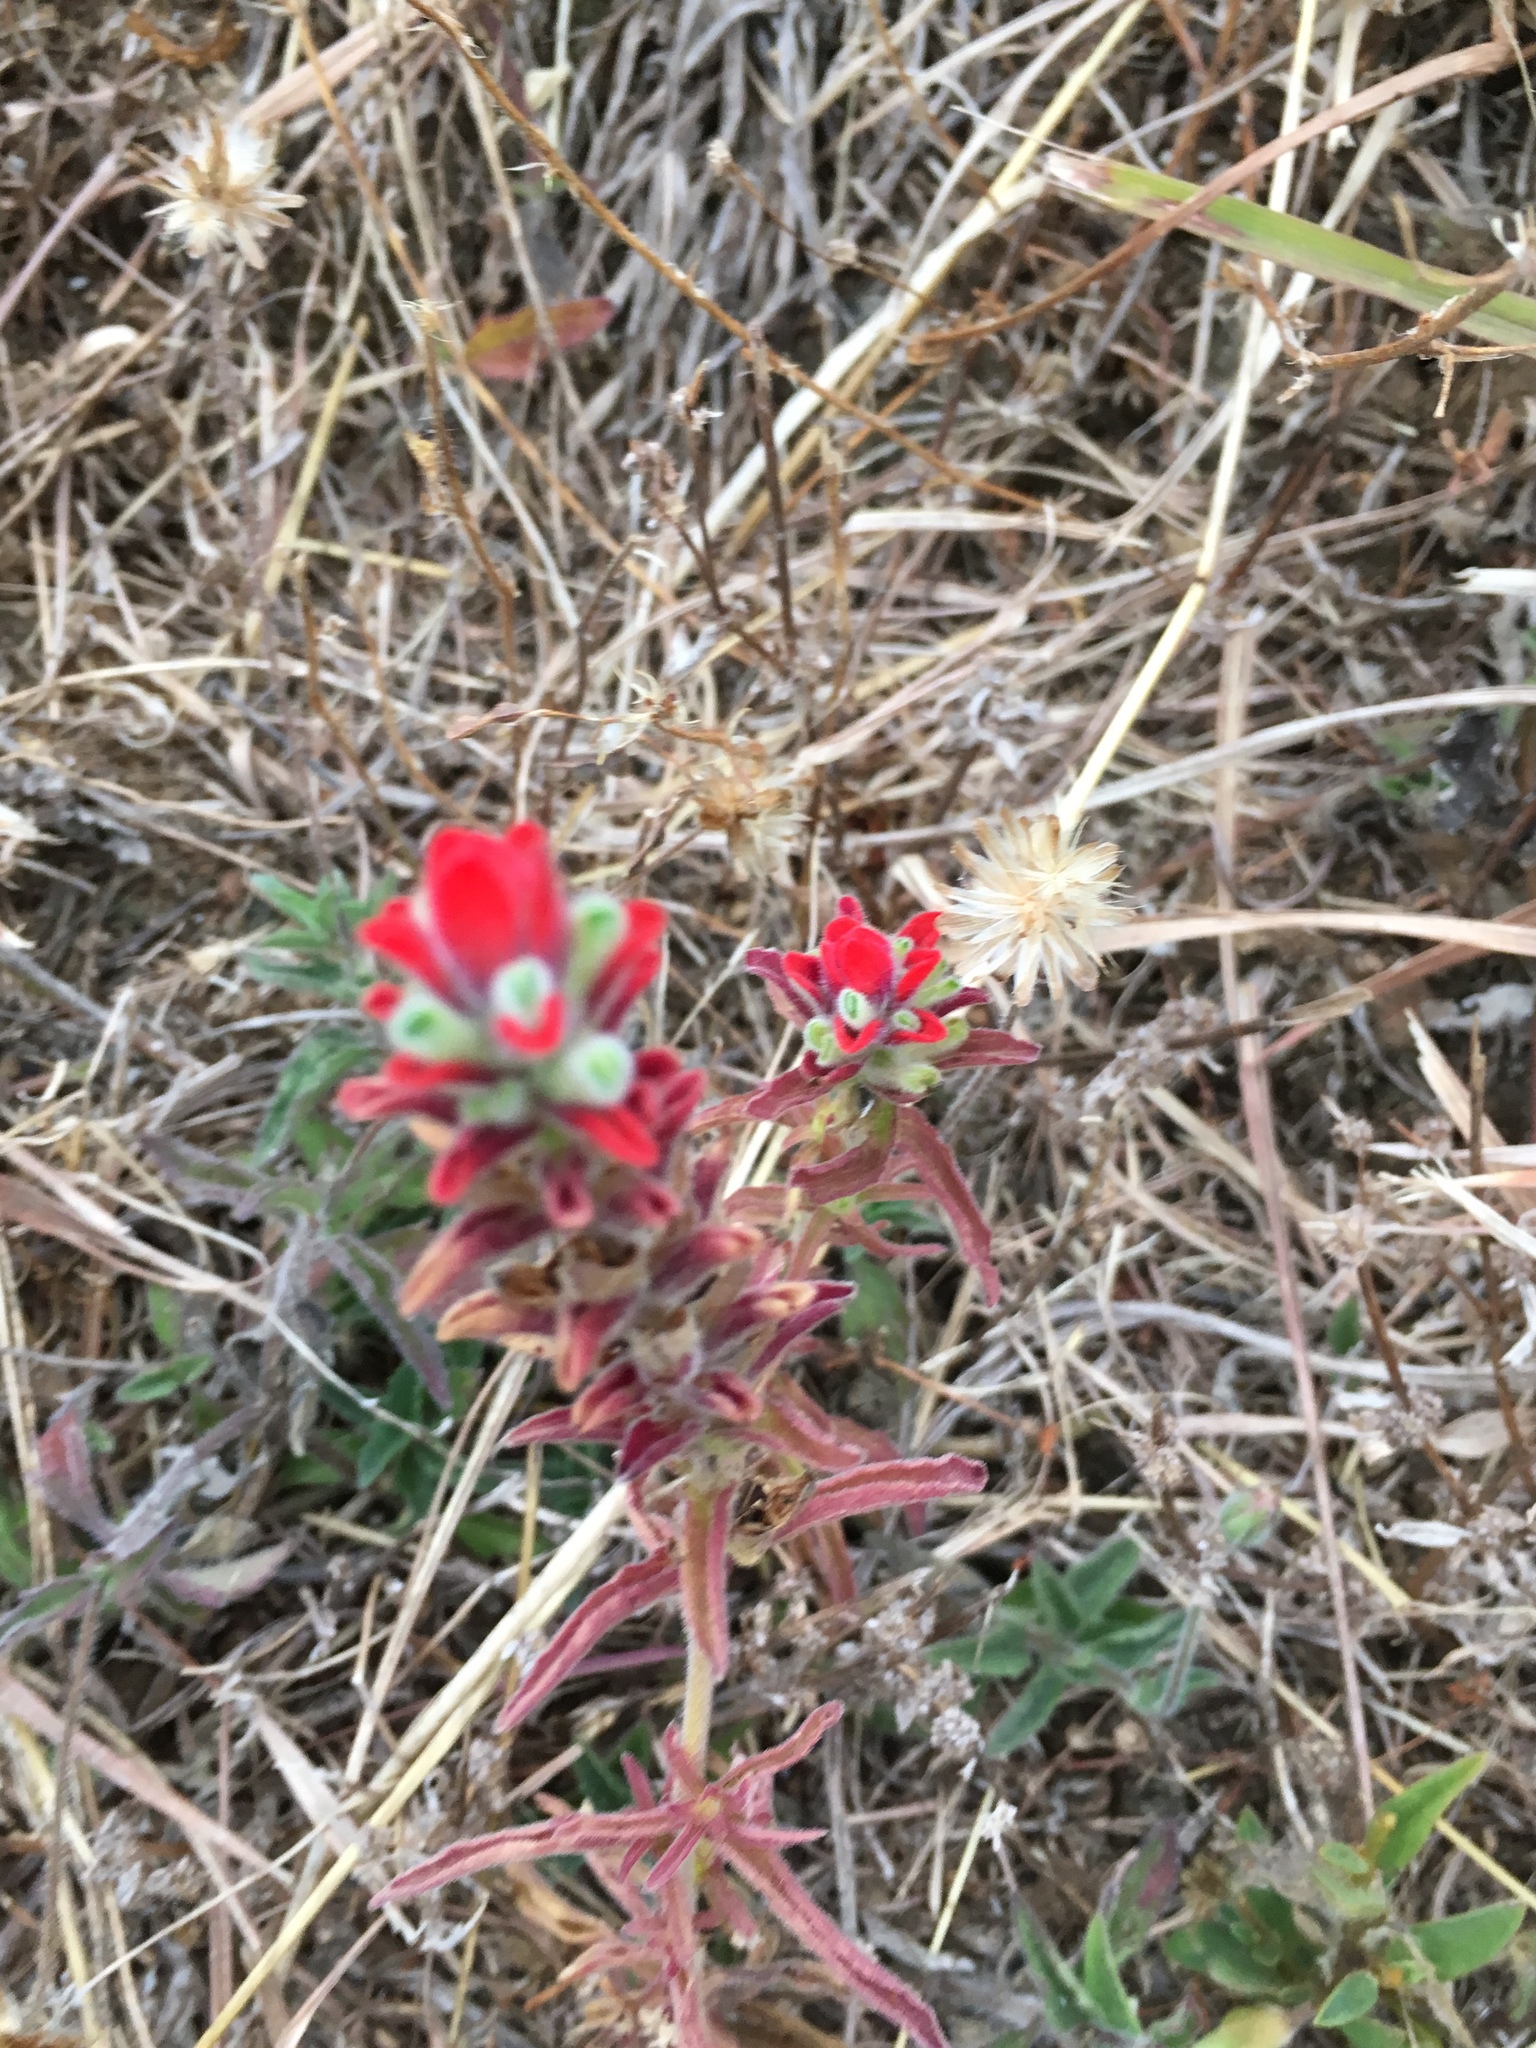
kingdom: Plantae
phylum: Tracheophyta
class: Magnoliopsida
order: Lamiales
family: Orobanchaceae
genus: Castilleja
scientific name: Castilleja arvensis
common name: Indian paintbrush
